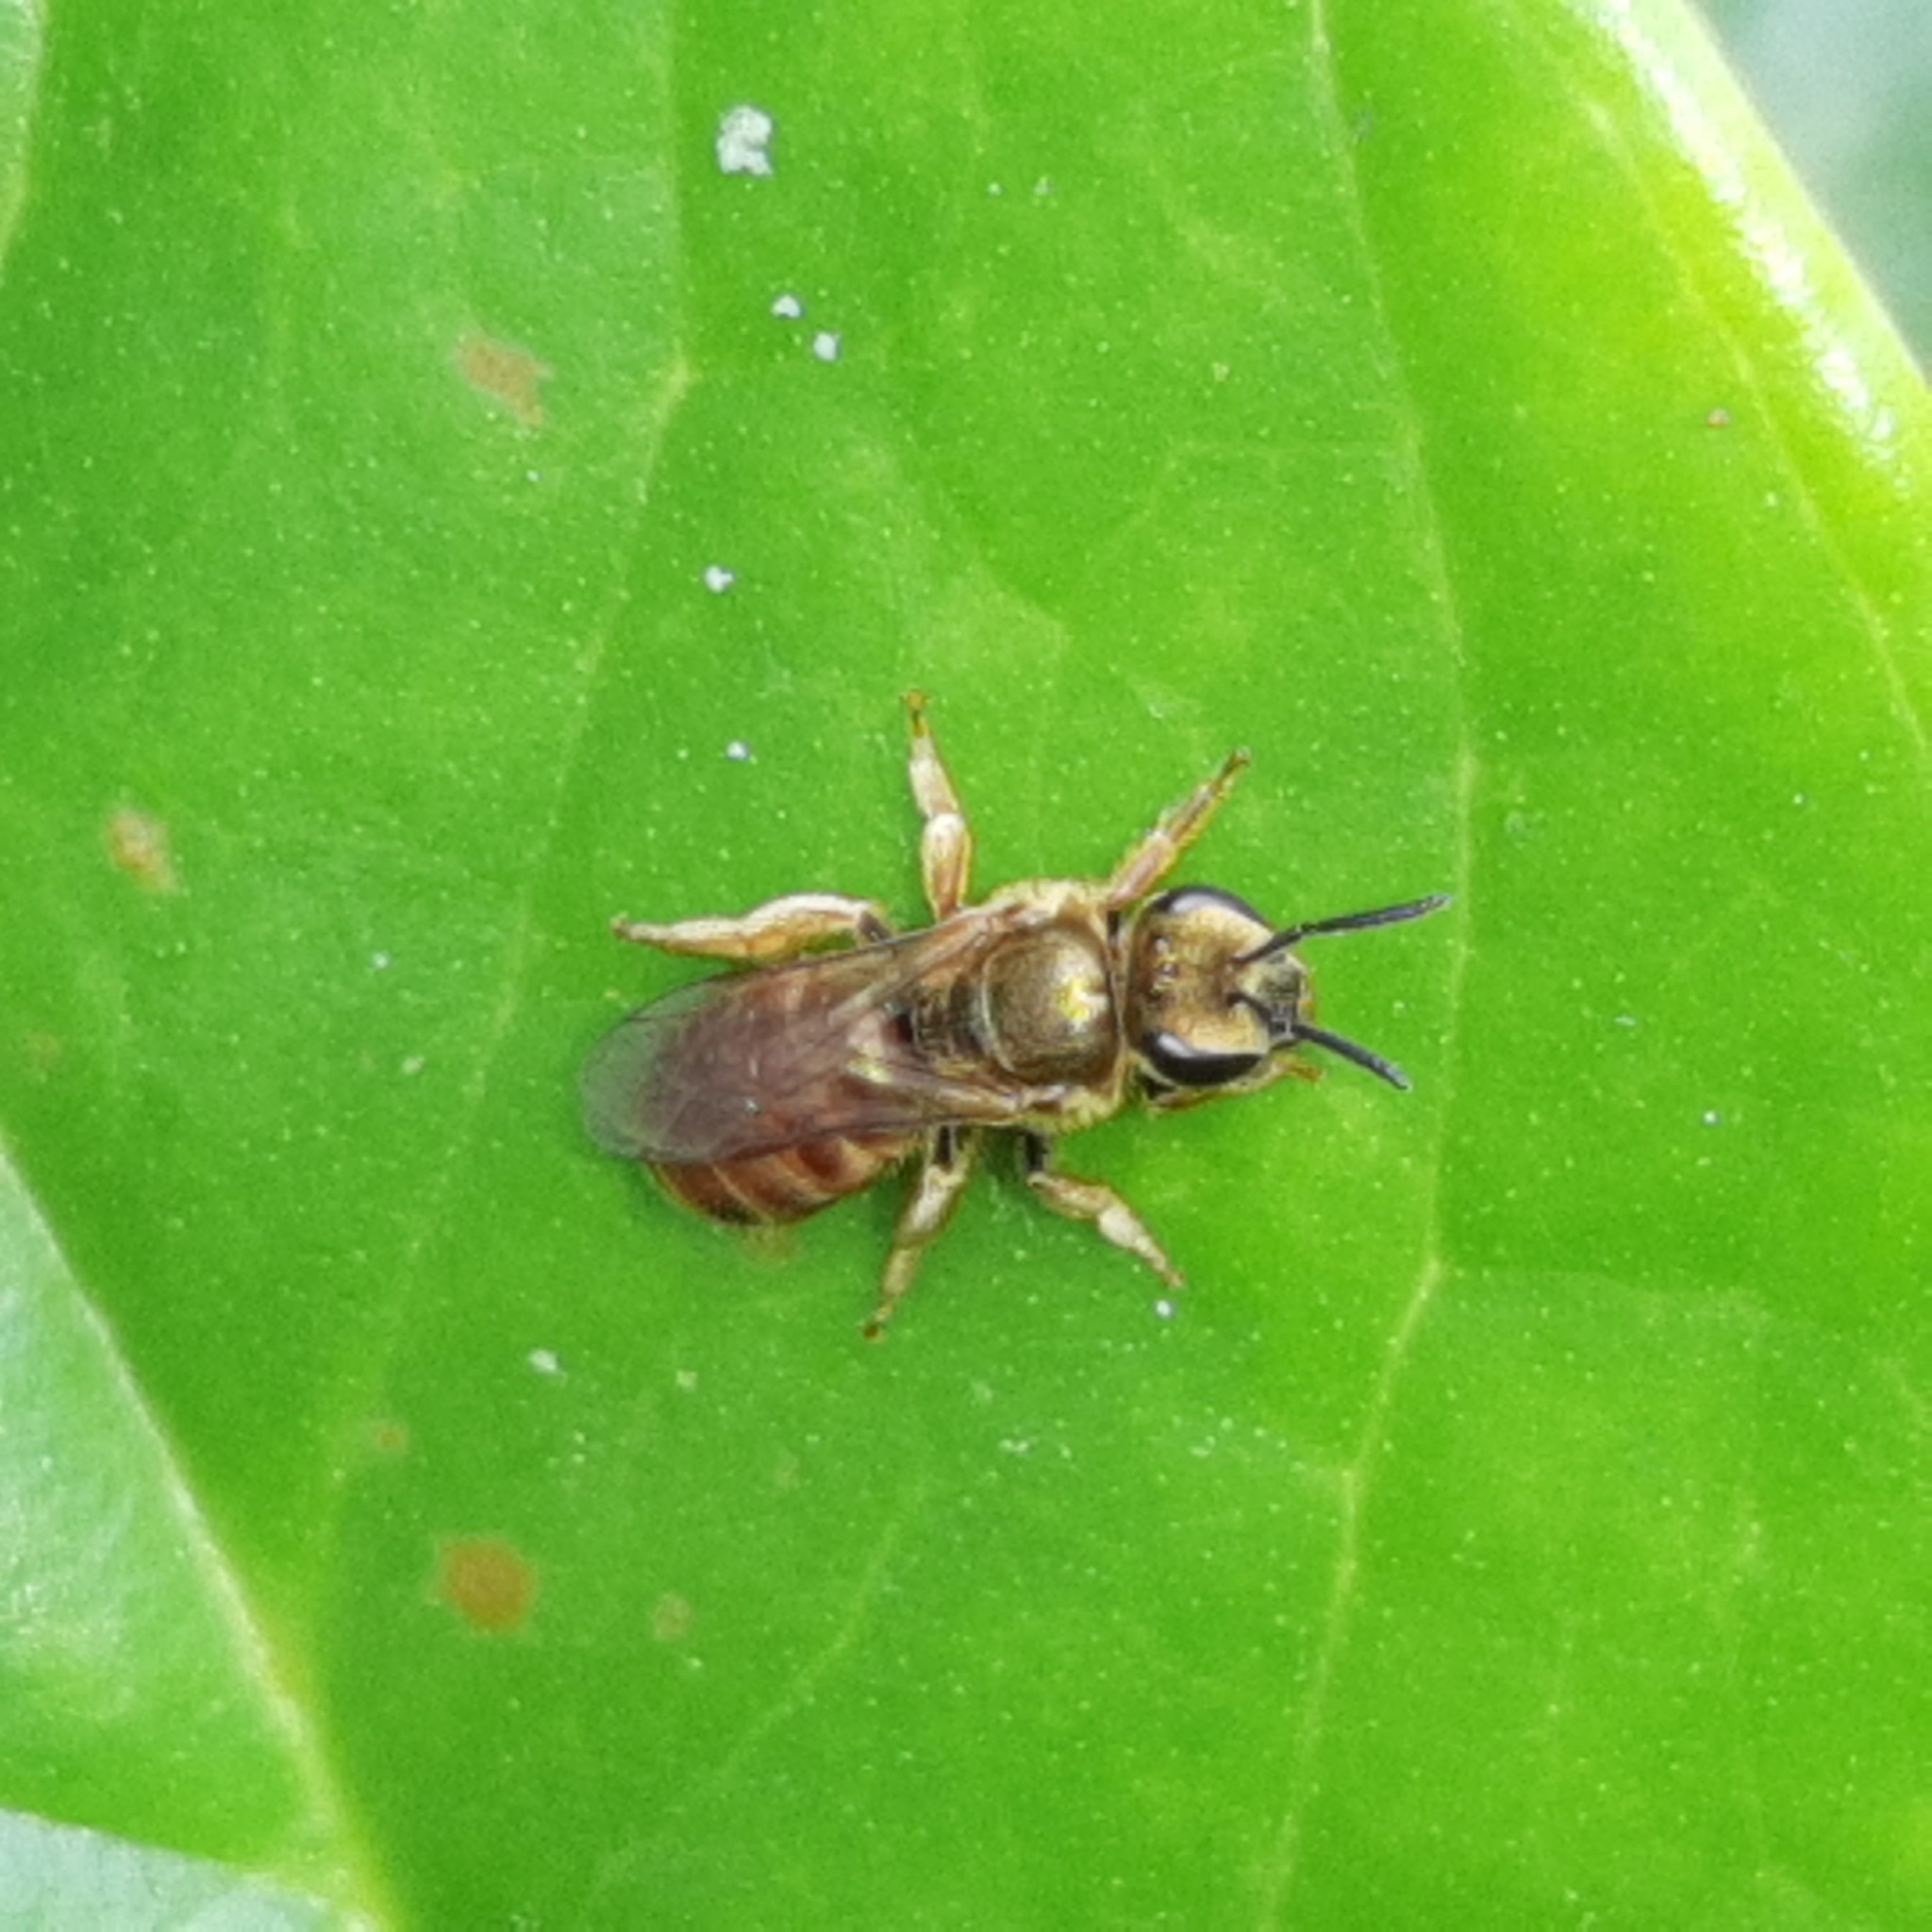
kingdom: Animalia
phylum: Arthropoda
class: Insecta
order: Hymenoptera
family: Halictidae
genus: Halictus
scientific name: Halictus lutescens
